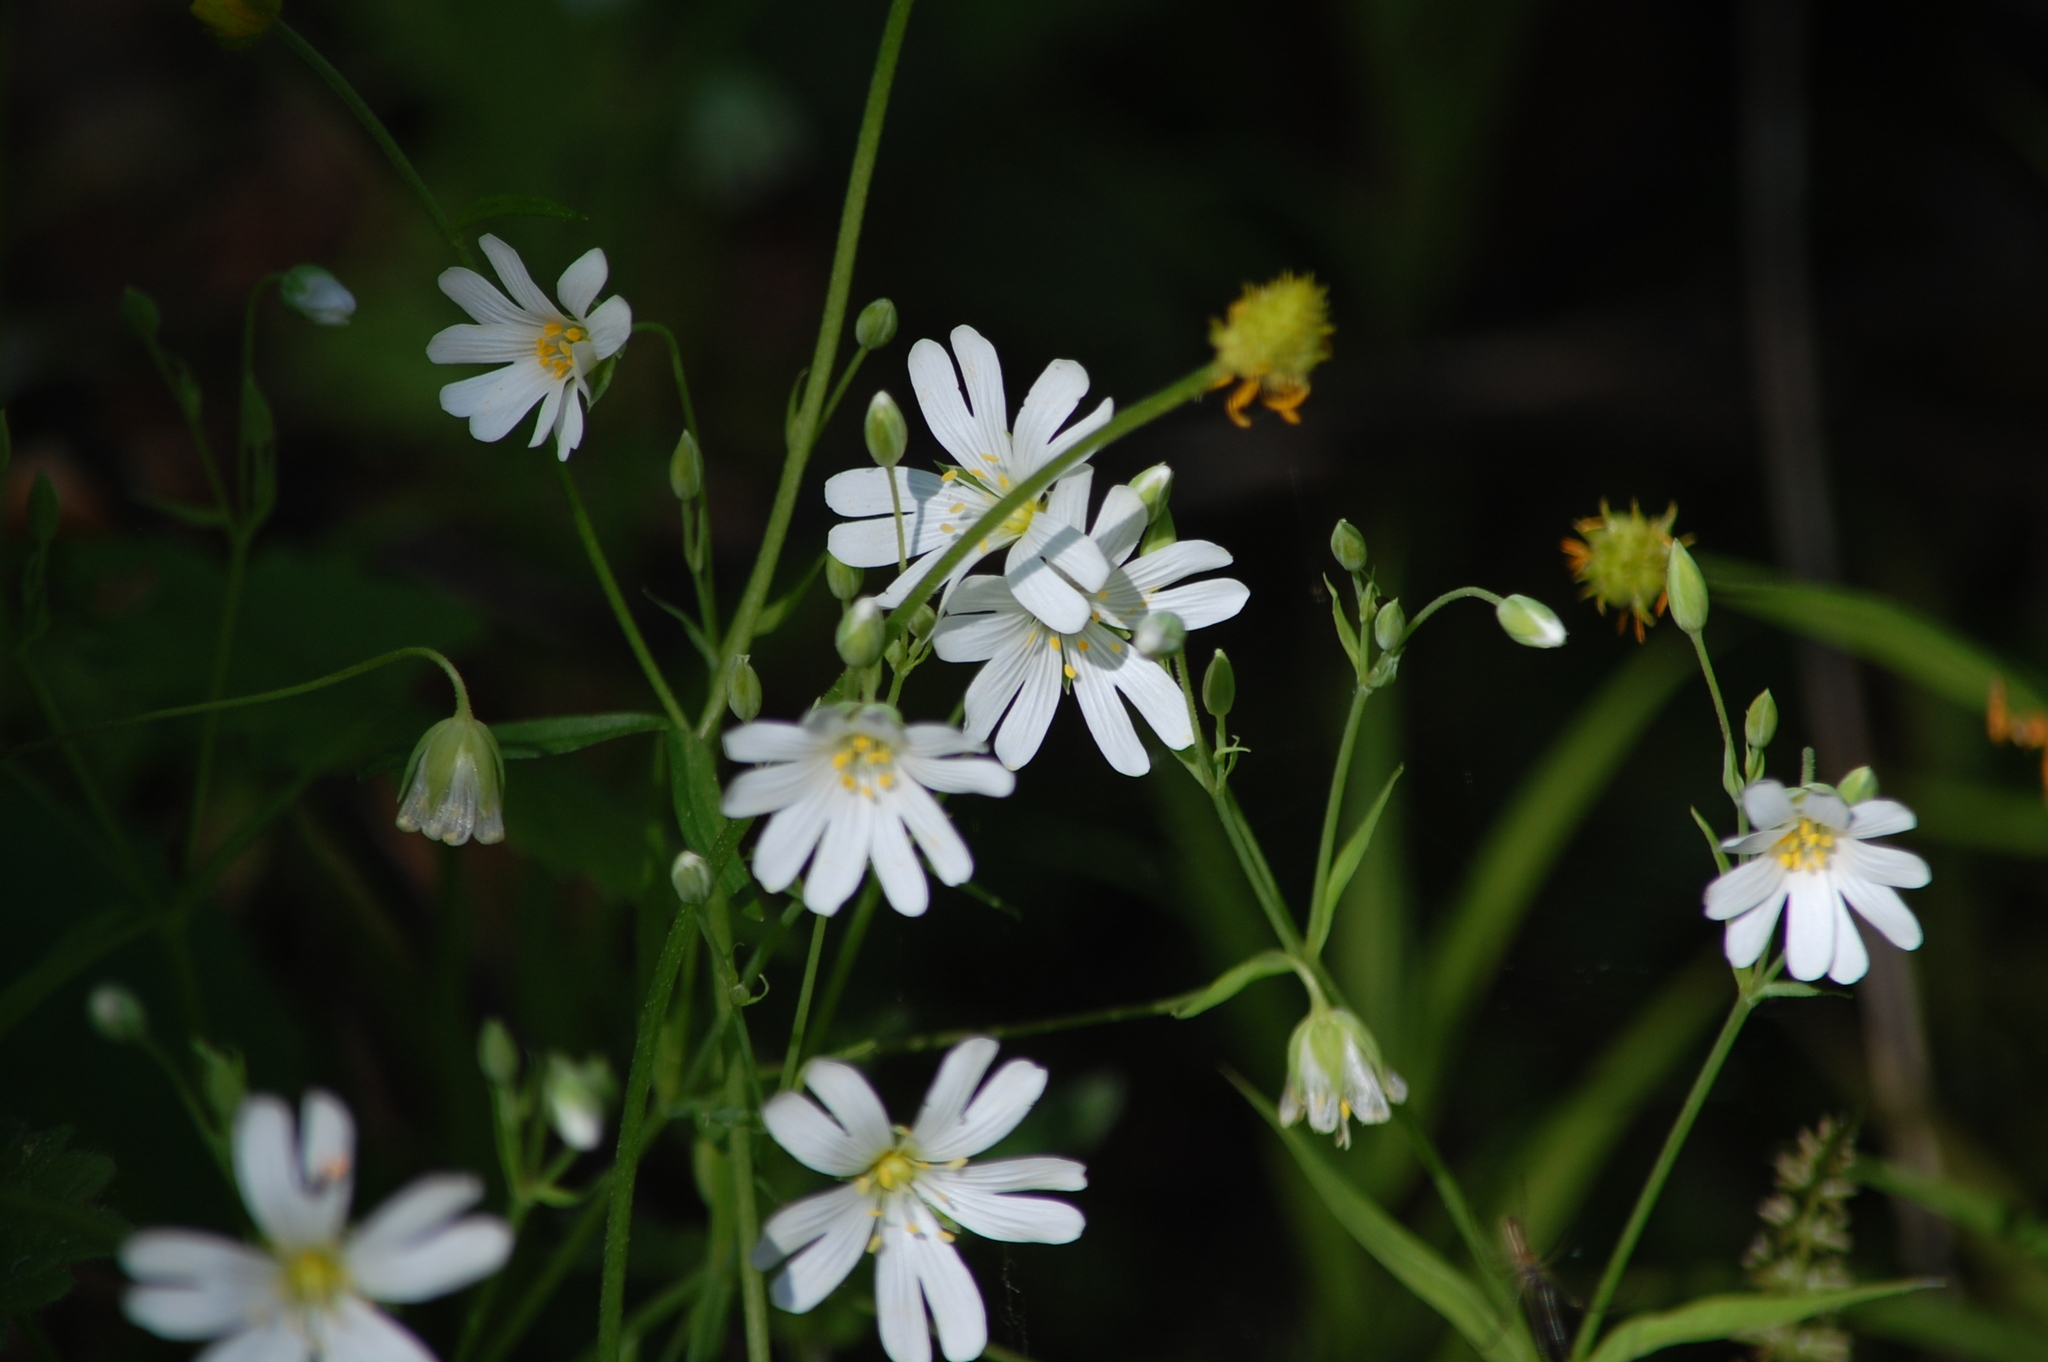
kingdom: Plantae
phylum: Tracheophyta
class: Magnoliopsida
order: Caryophyllales
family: Caryophyllaceae
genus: Rabelera
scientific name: Rabelera holostea
